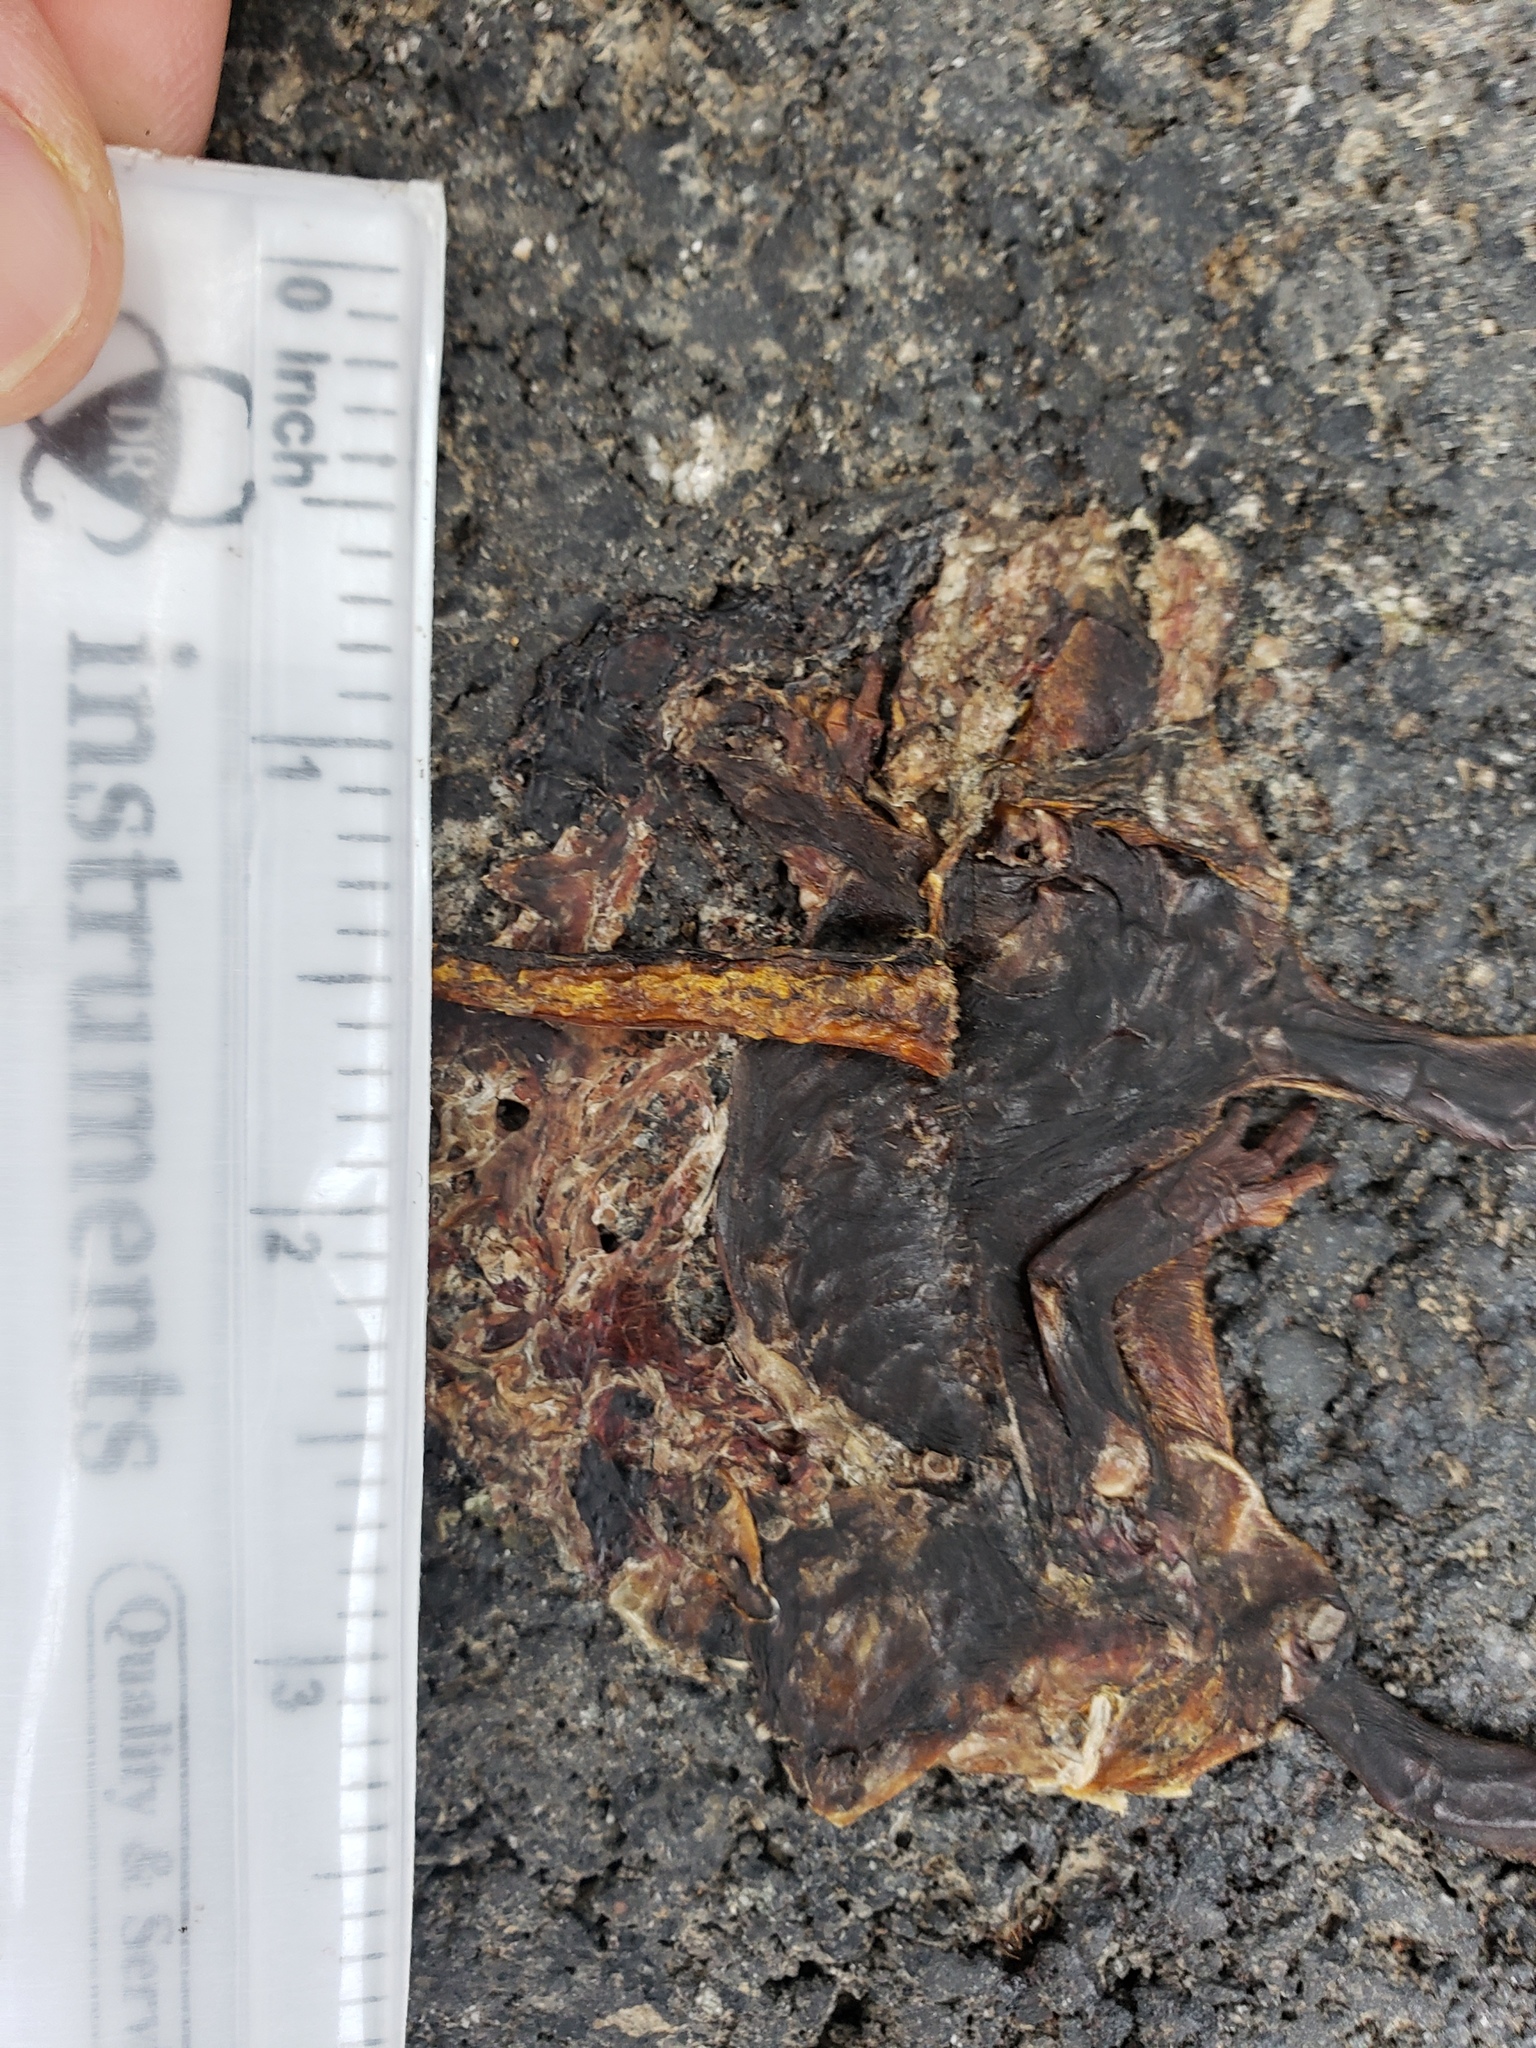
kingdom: Animalia
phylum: Chordata
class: Amphibia
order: Caudata
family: Salamandridae
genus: Taricha
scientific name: Taricha
